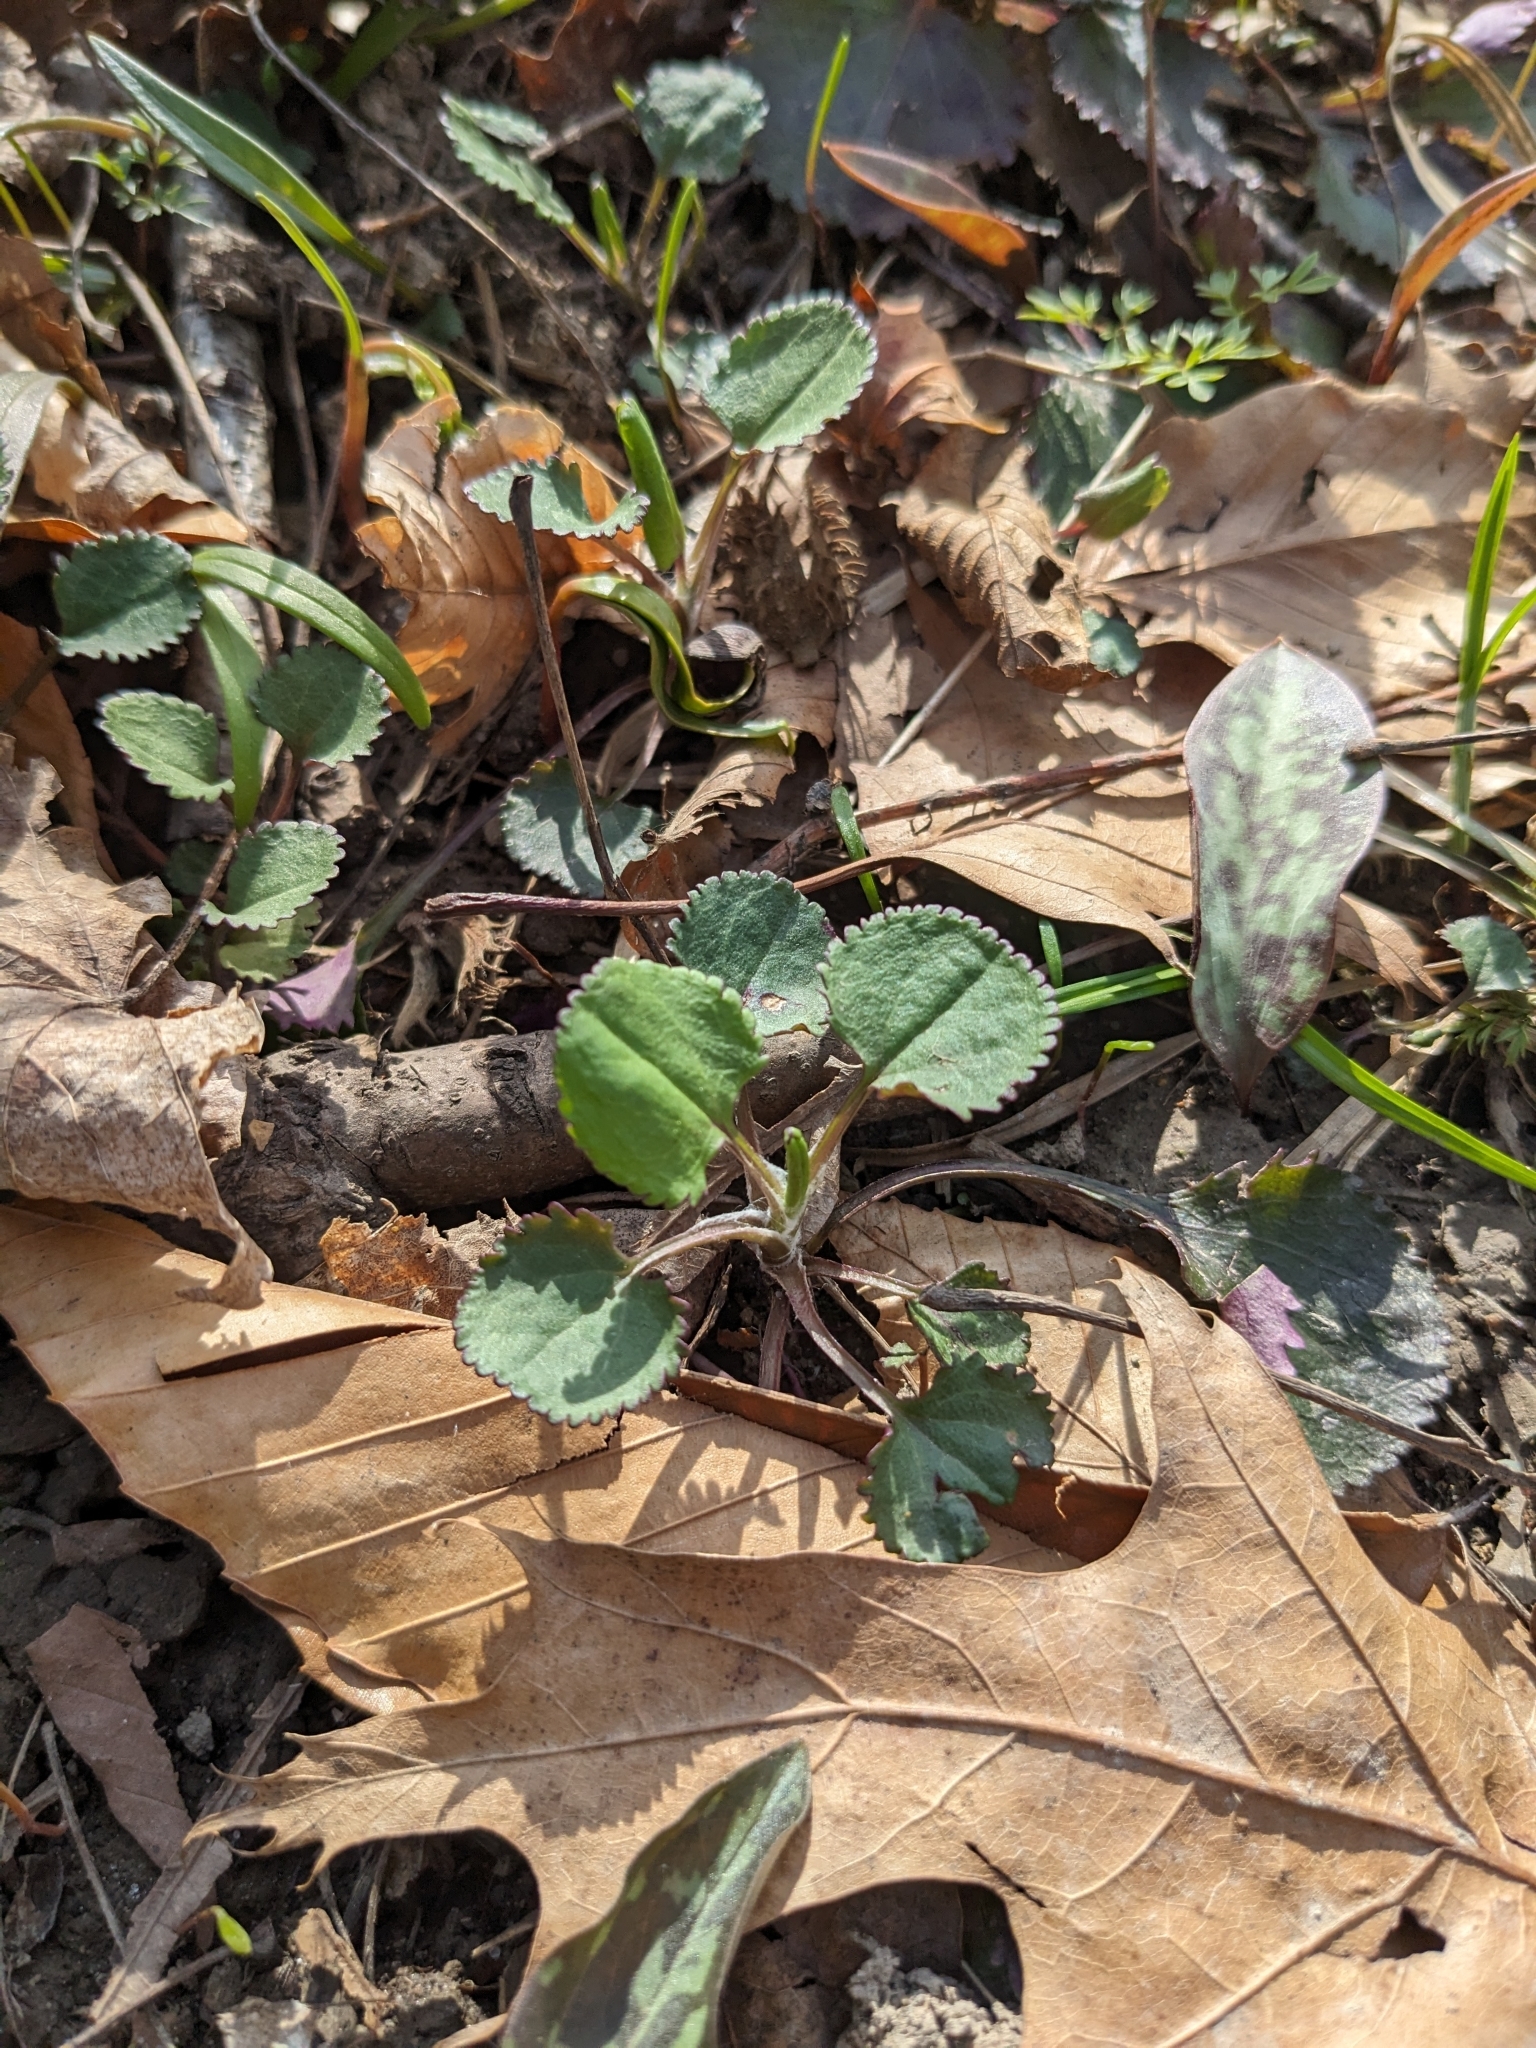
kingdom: Plantae
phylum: Tracheophyta
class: Magnoliopsida
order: Asterales
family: Asteraceae
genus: Packera
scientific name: Packera obovata
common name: Round-leaf ragwort
